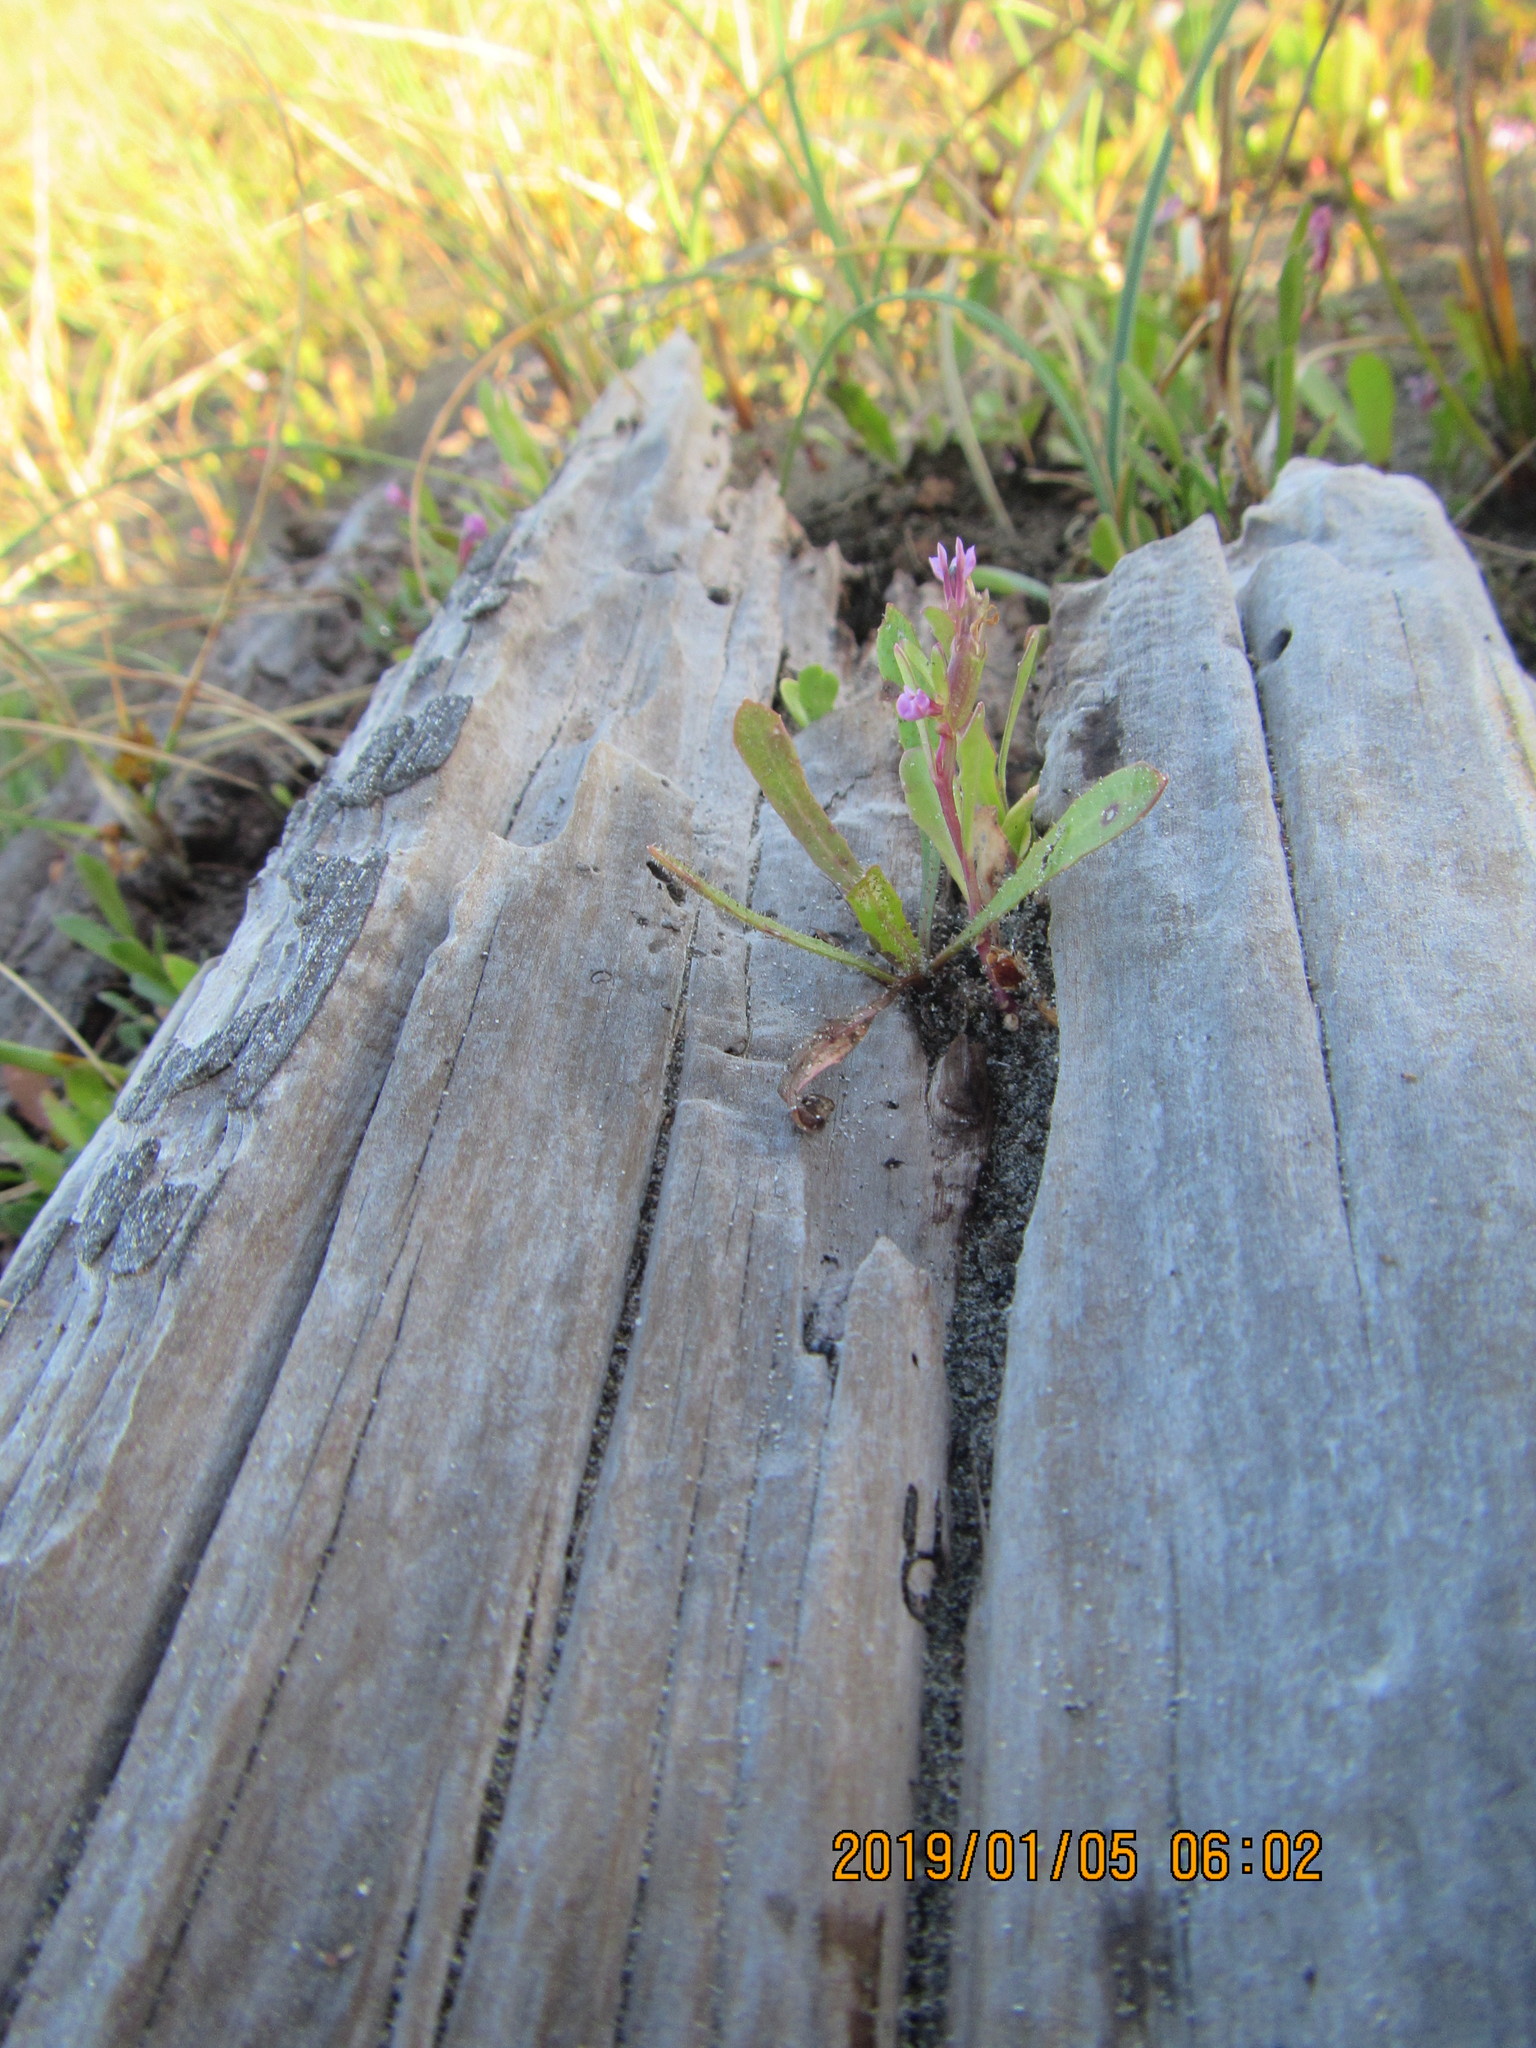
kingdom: Plantae
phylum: Tracheophyta
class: Magnoliopsida
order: Asterales
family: Campanulaceae
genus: Lobelia
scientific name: Lobelia anceps
